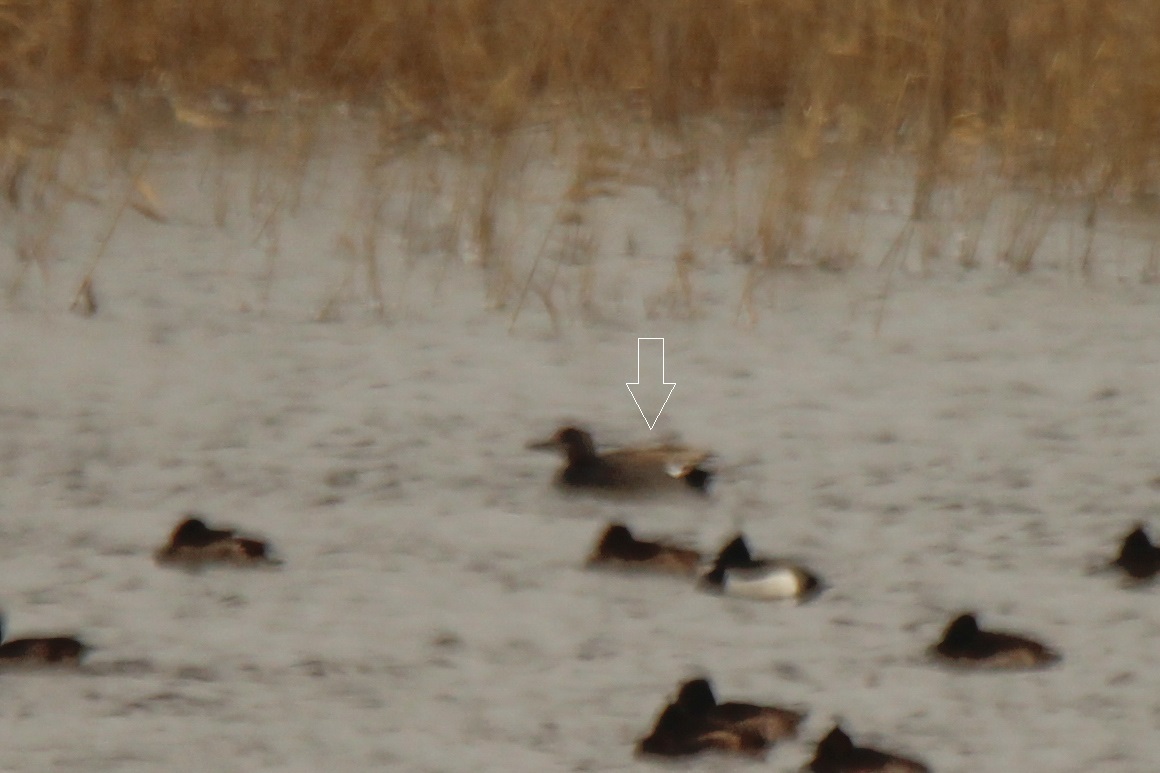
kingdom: Animalia
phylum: Chordata
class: Aves
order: Anseriformes
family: Anatidae
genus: Mareca
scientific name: Mareca strepera
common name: Gadwall
